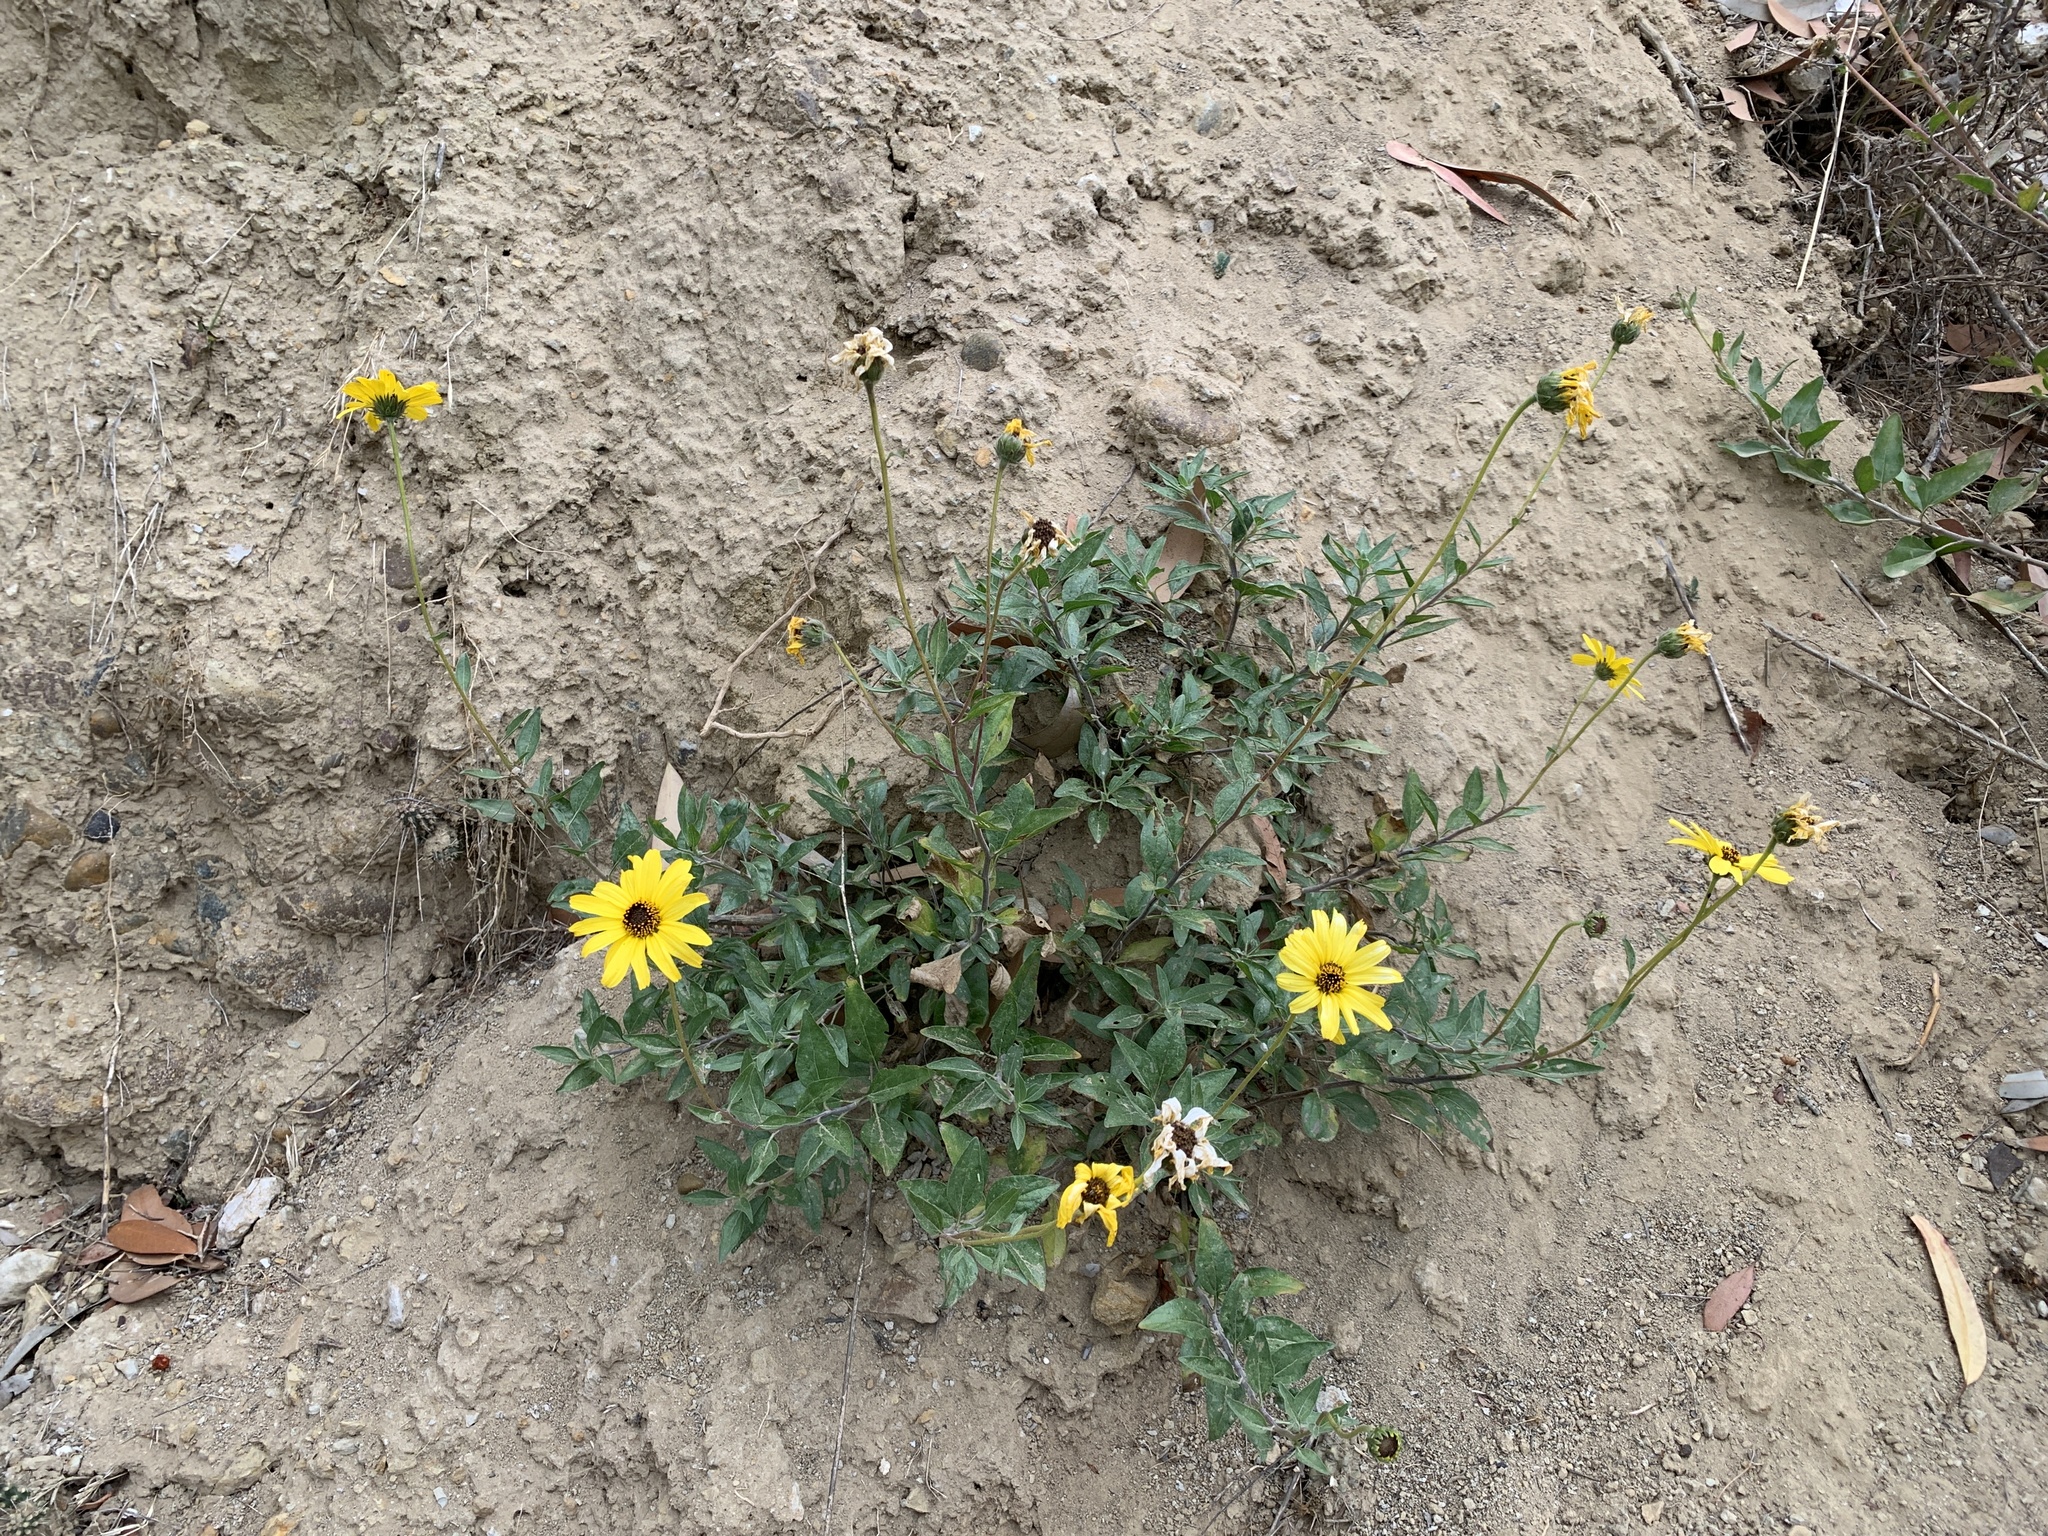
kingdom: Plantae
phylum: Tracheophyta
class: Magnoliopsida
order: Asterales
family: Asteraceae
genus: Encelia
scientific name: Encelia californica
